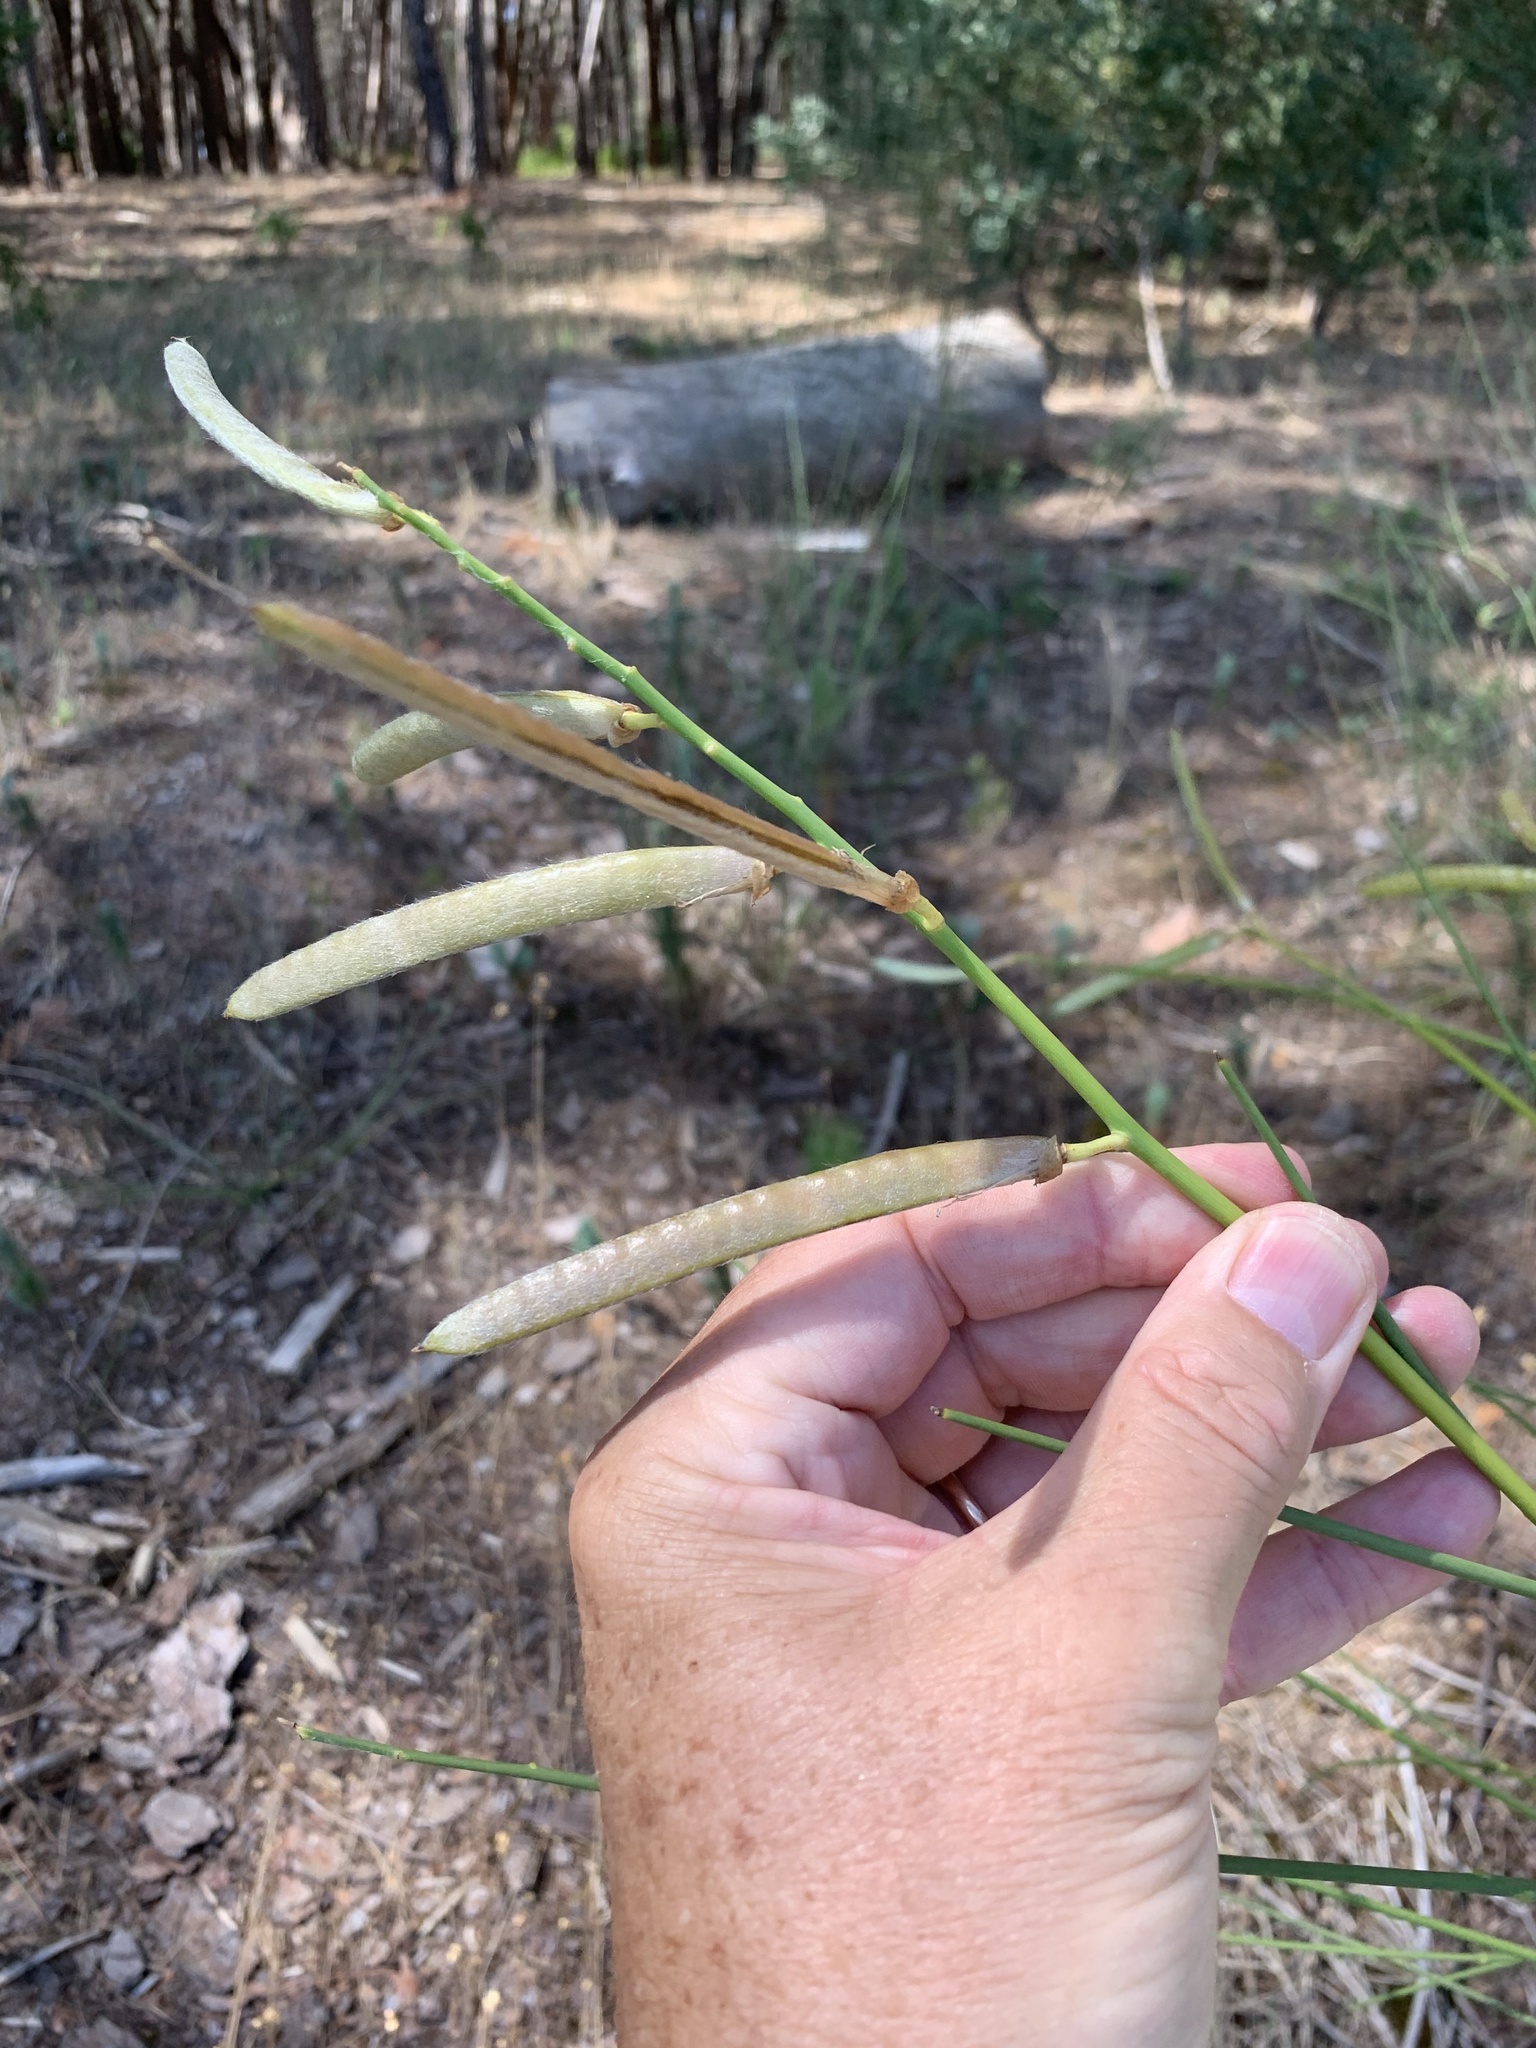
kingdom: Plantae
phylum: Tracheophyta
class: Magnoliopsida
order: Fabales
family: Fabaceae
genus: Spartium
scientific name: Spartium junceum
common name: Spanish broom
